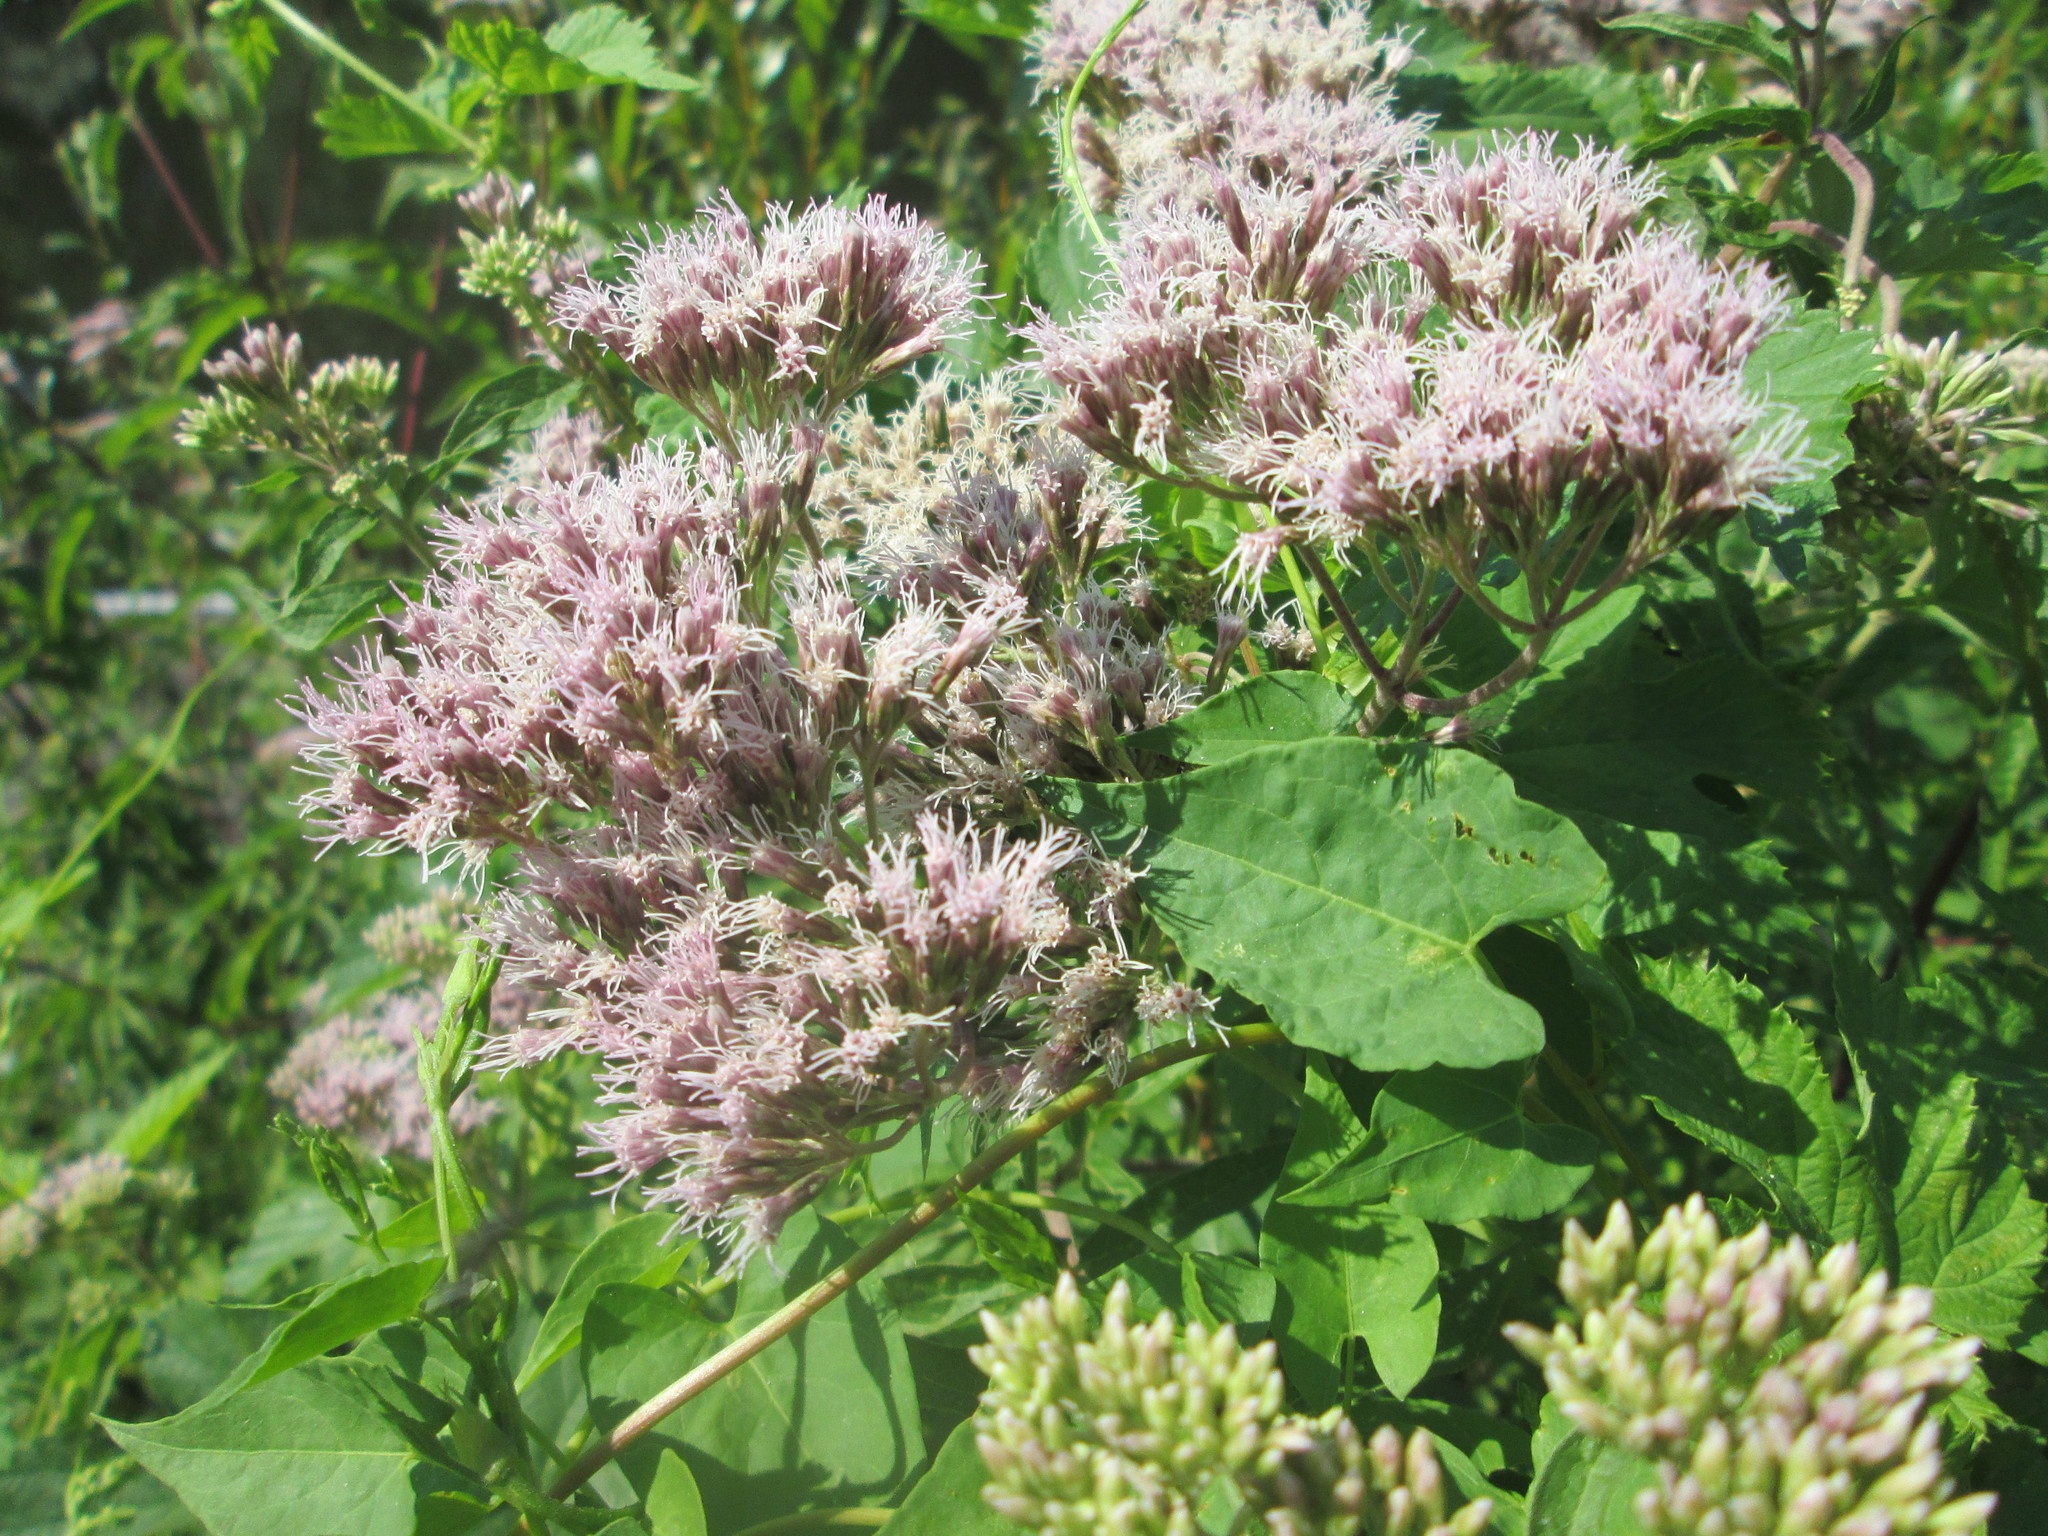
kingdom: Plantae
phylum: Tracheophyta
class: Magnoliopsida
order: Asterales
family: Asteraceae
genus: Eupatorium
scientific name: Eupatorium cannabinum
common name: Hemp-agrimony
